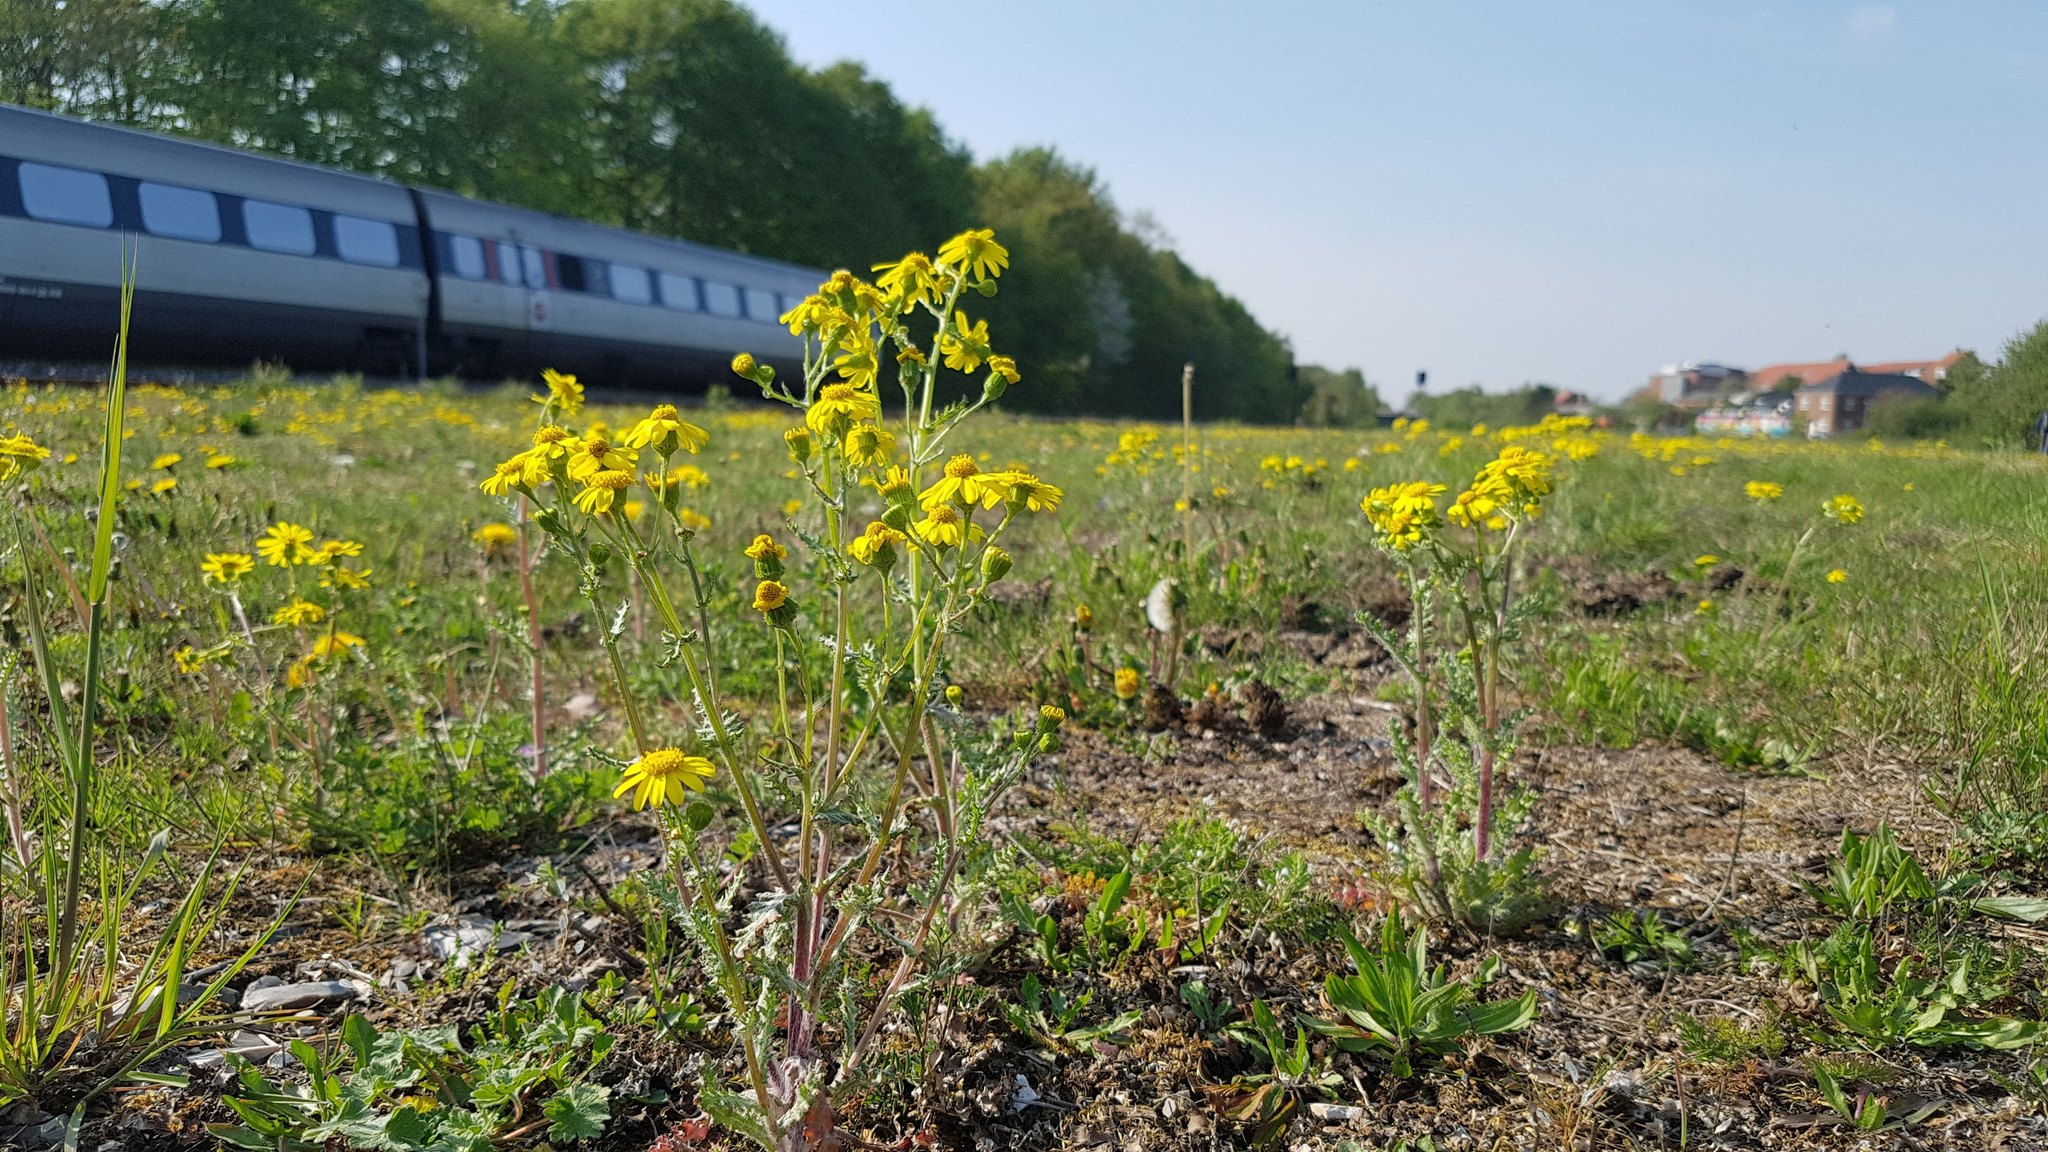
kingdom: Plantae
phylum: Tracheophyta
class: Magnoliopsida
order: Asterales
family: Asteraceae
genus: Senecio
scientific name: Senecio vernalis
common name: Eastern groundsel
